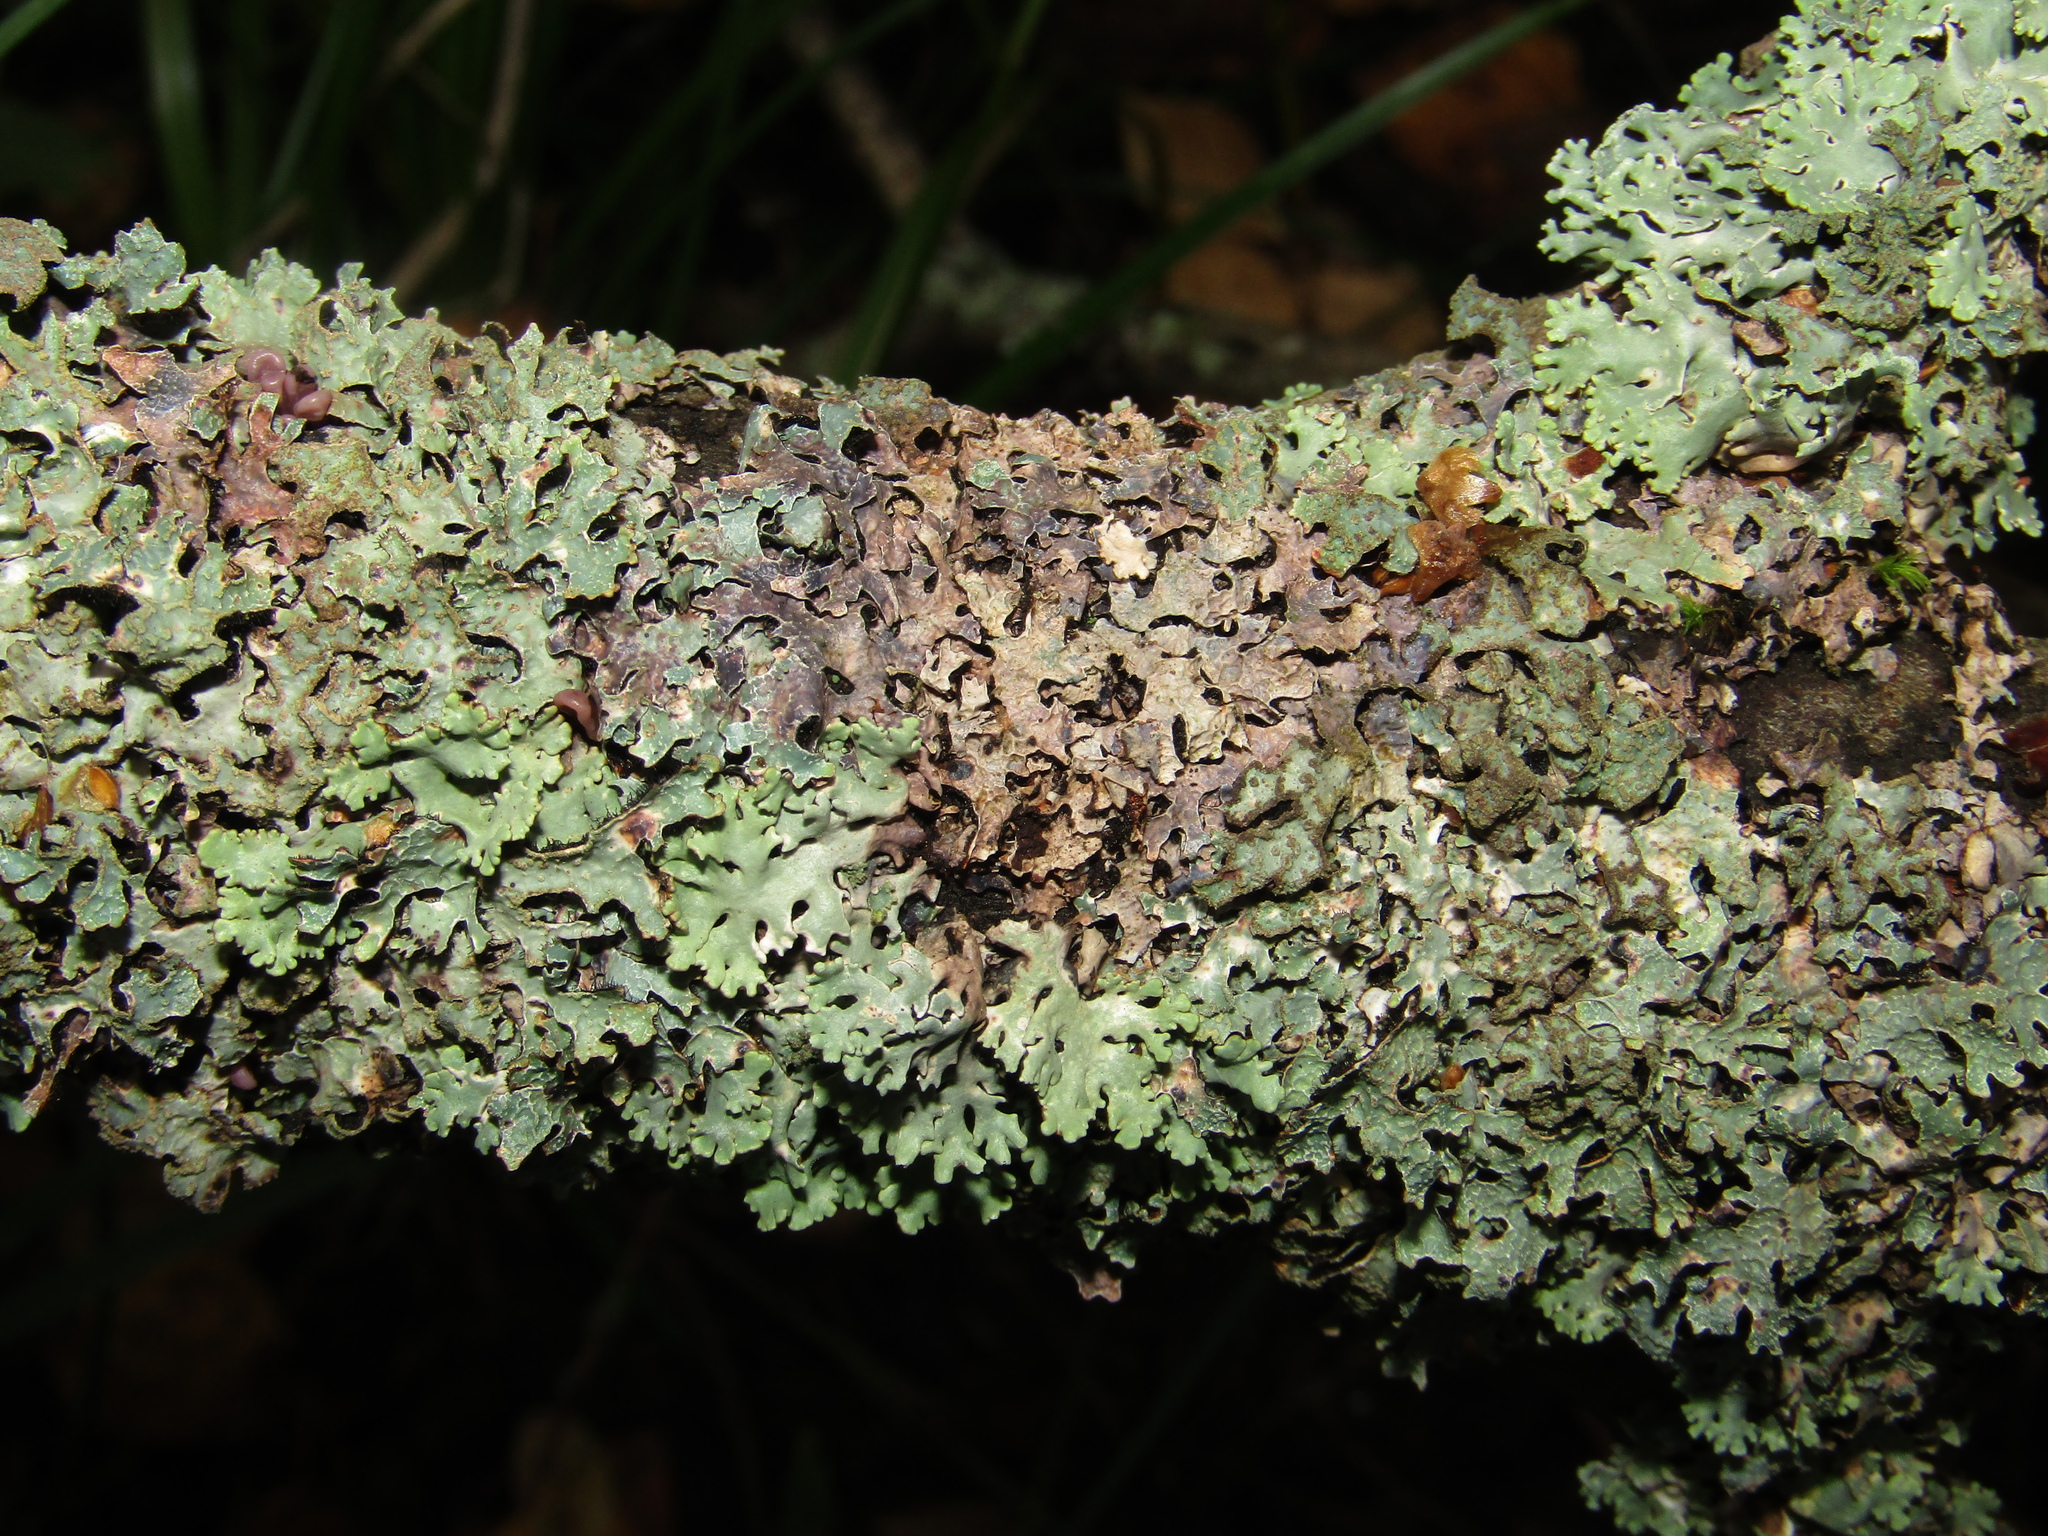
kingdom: Fungi
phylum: Ascomycota
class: Lecanoromycetes
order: Lecanorales
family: Parmeliaceae
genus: Parmelia
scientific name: Parmelia sulcata
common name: Netted shield lichen
